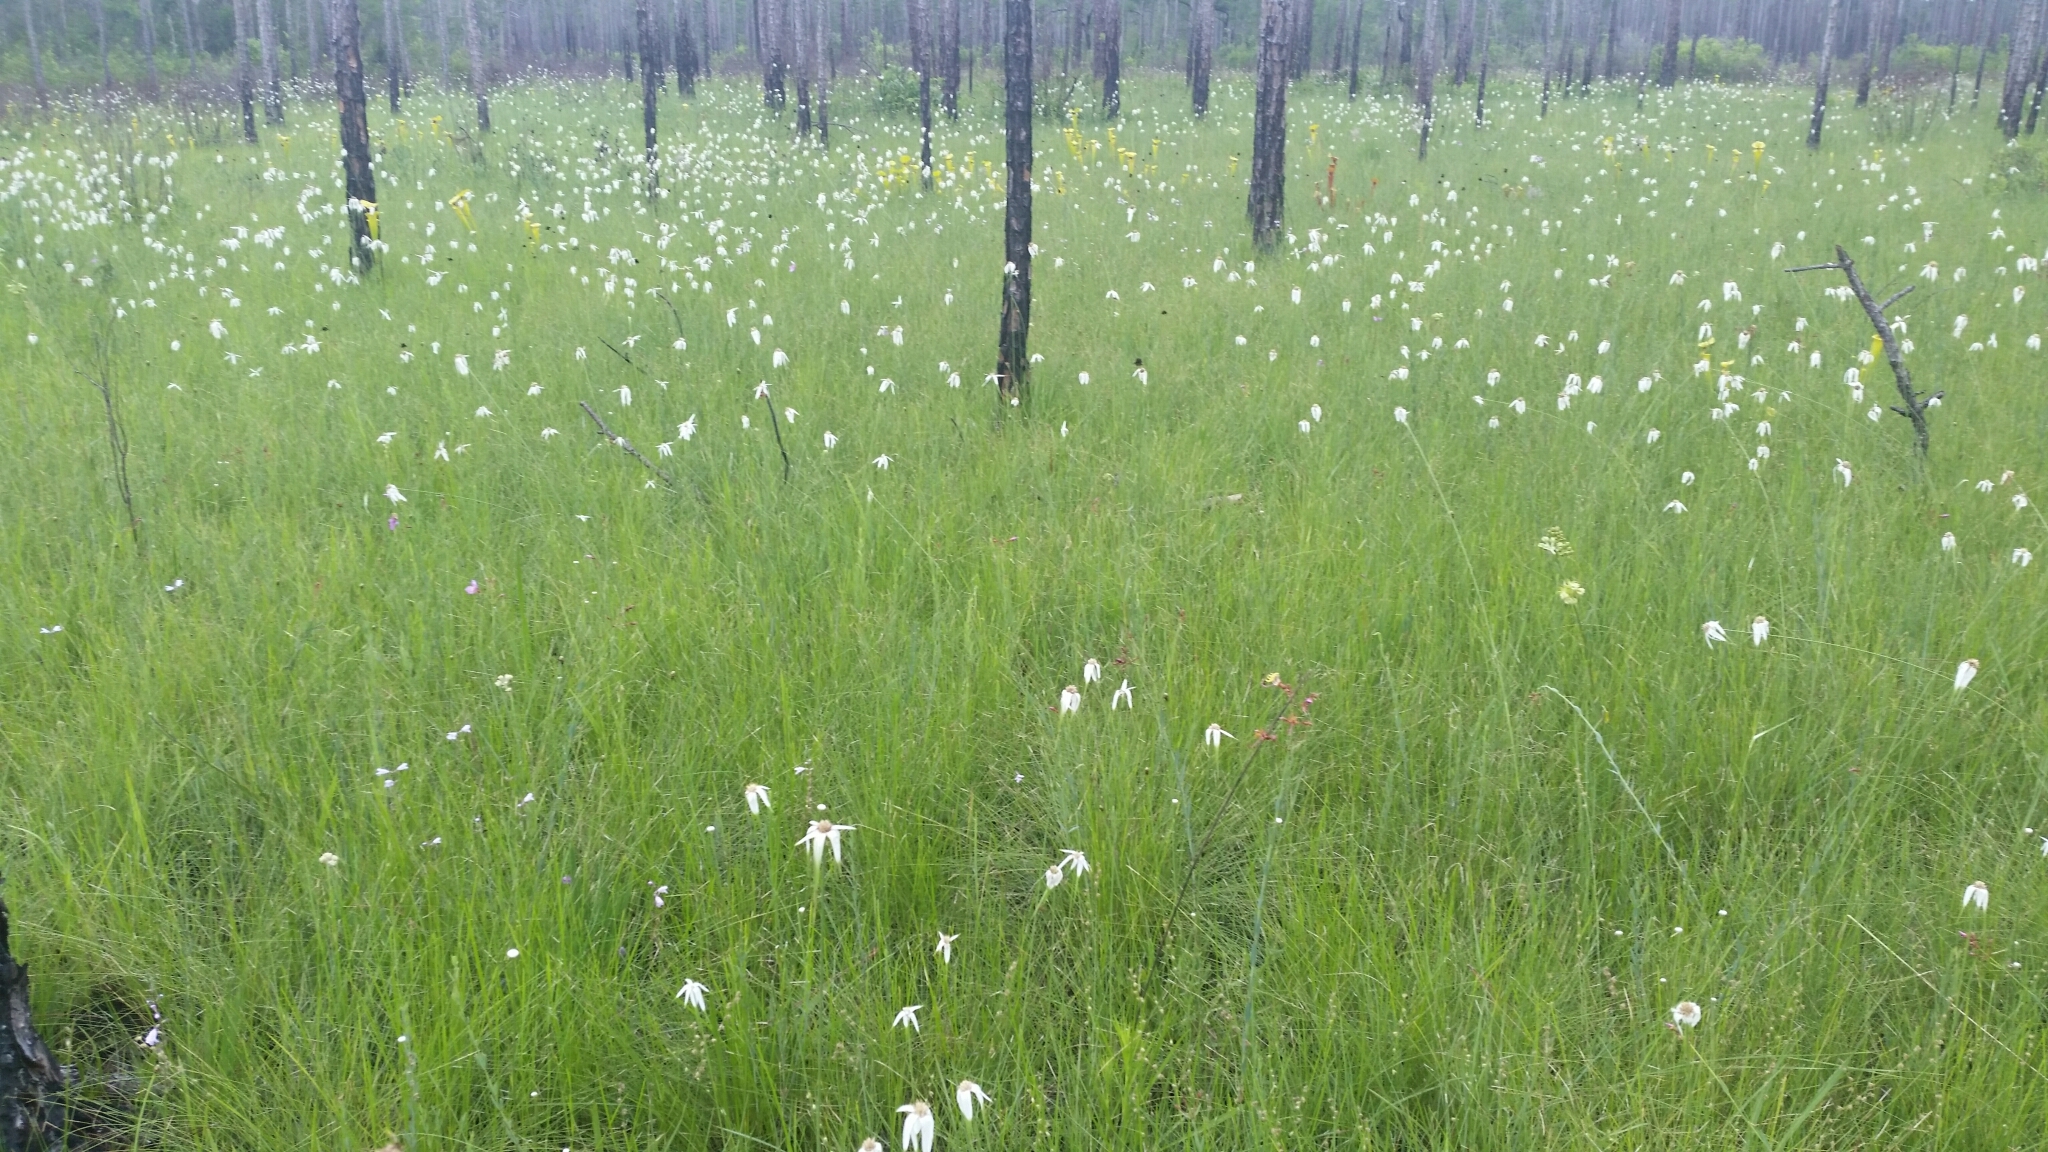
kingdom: Plantae
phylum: Tracheophyta
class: Liliopsida
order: Poales
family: Cyperaceae
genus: Rhynchospora
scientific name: Rhynchospora latifolia
